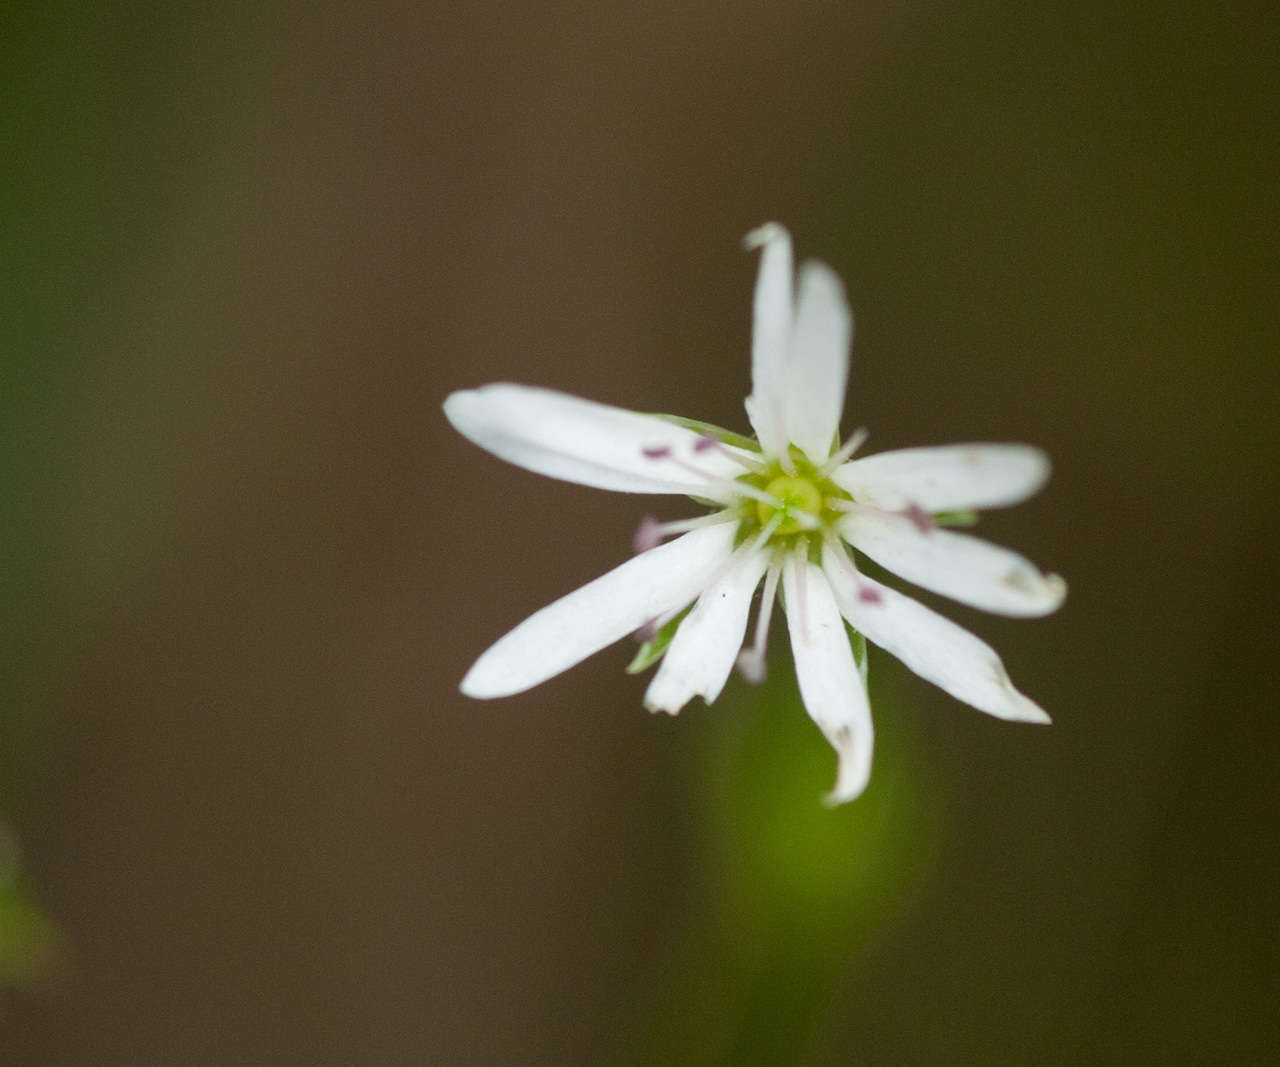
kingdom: Plantae
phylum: Tracheophyta
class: Magnoliopsida
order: Caryophyllales
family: Caryophyllaceae
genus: Stellaria
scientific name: Stellaria flaccida
